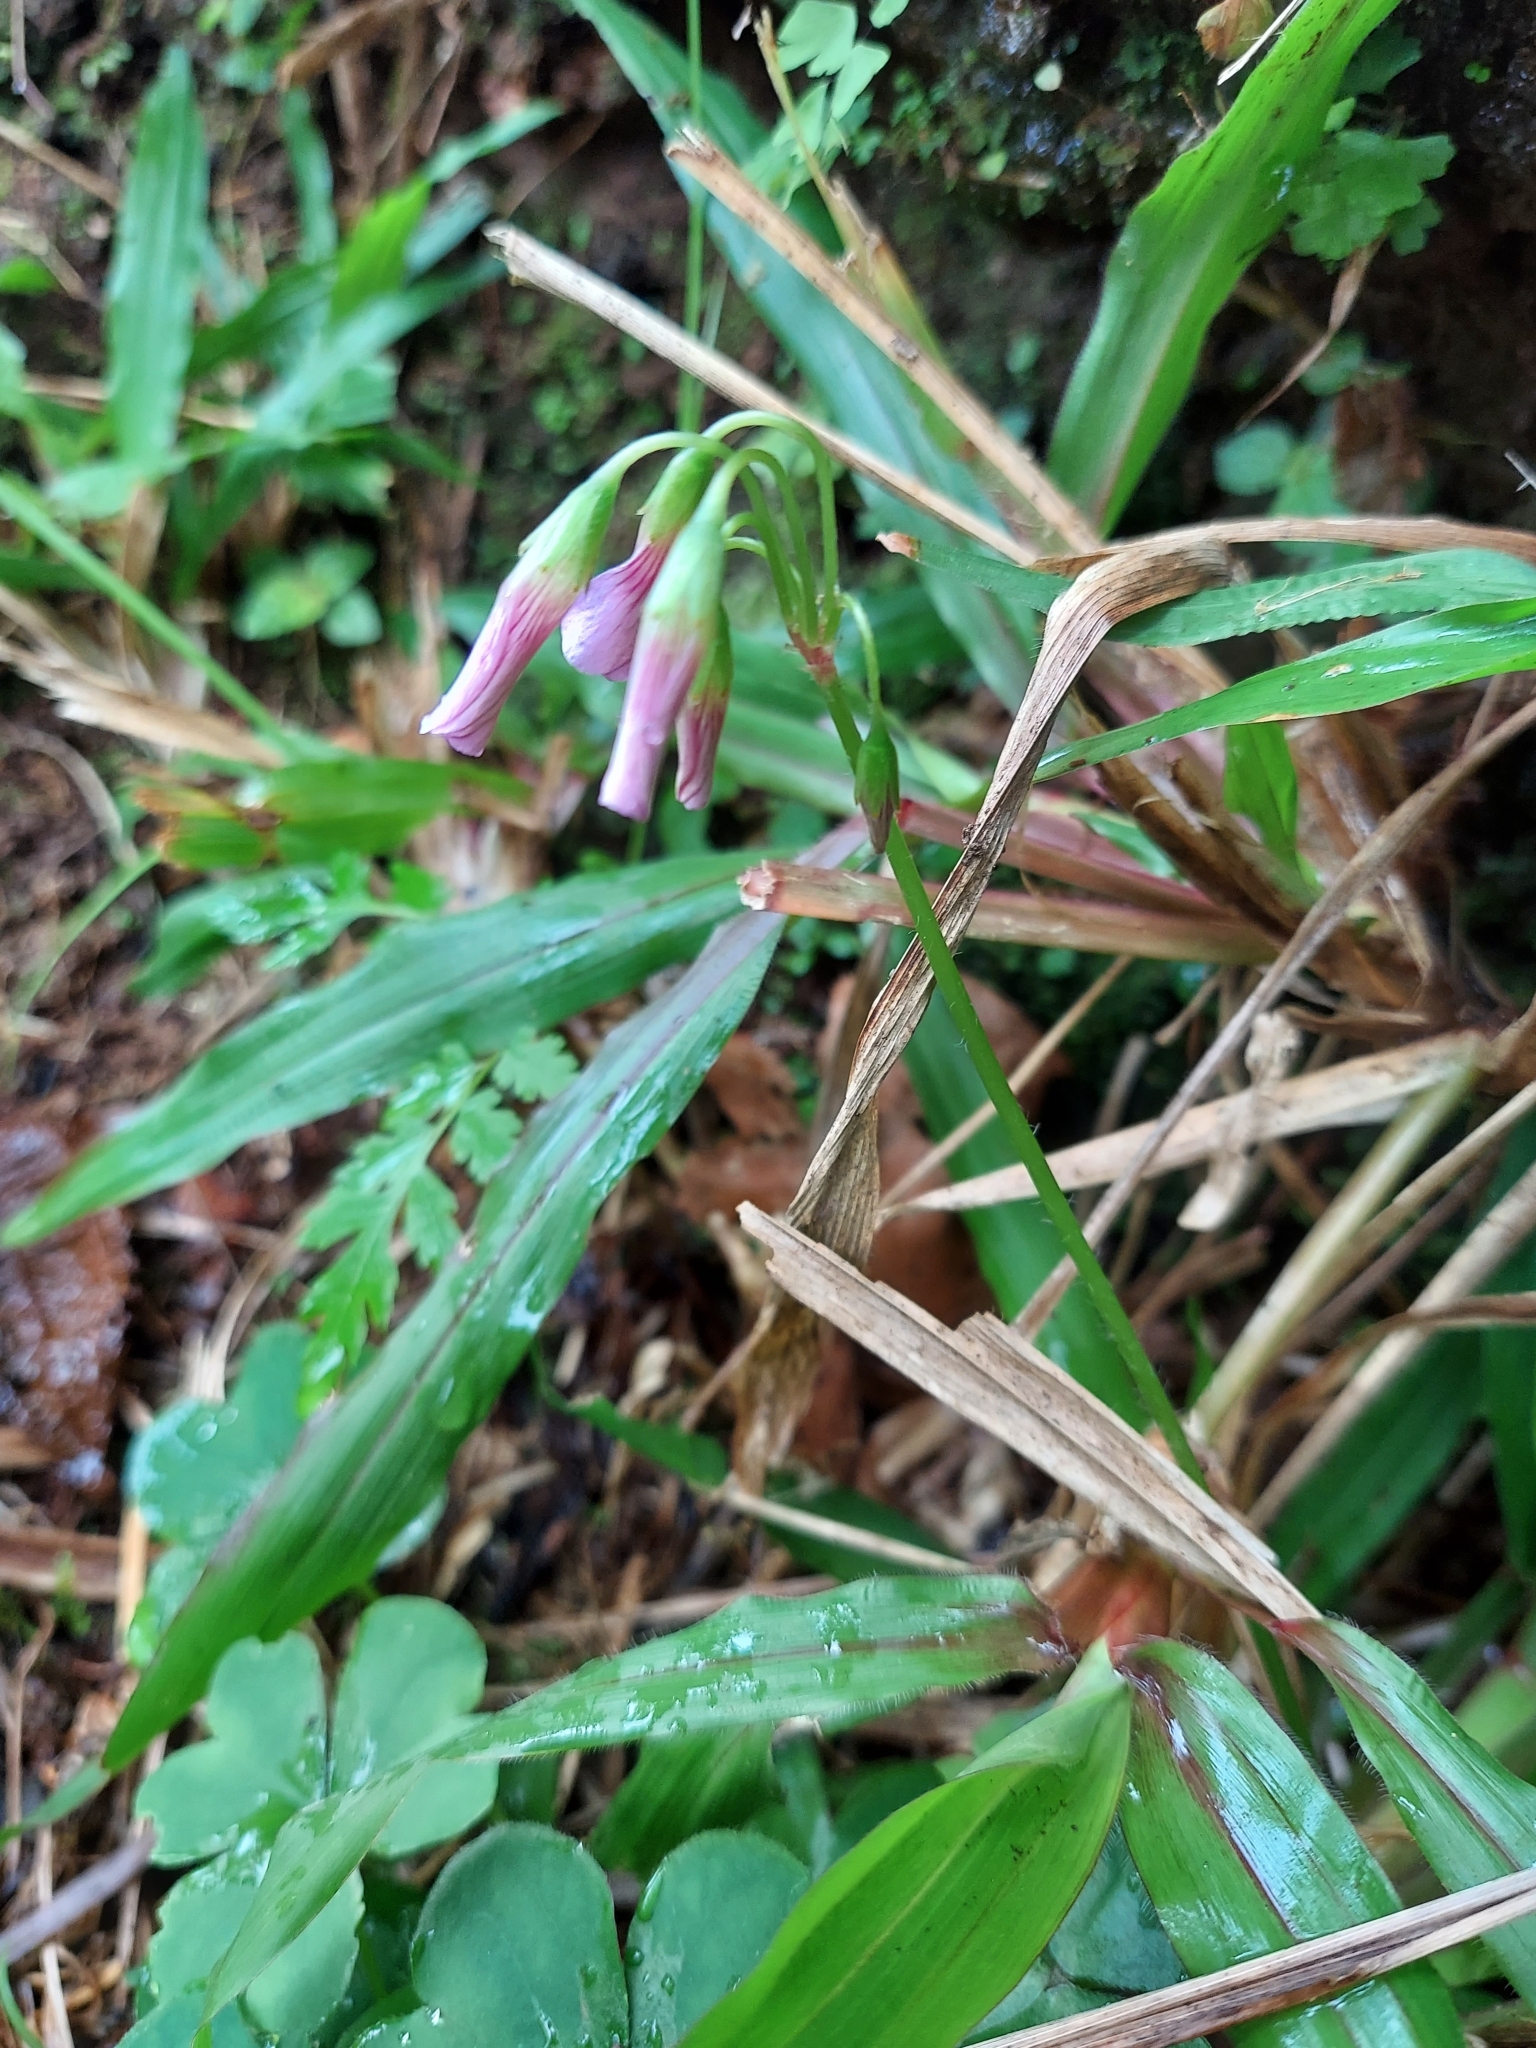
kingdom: Plantae
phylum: Tracheophyta
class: Magnoliopsida
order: Oxalidales
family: Oxalidaceae
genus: Oxalis
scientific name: Oxalis debilis
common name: Large-flowered pink-sorrel
